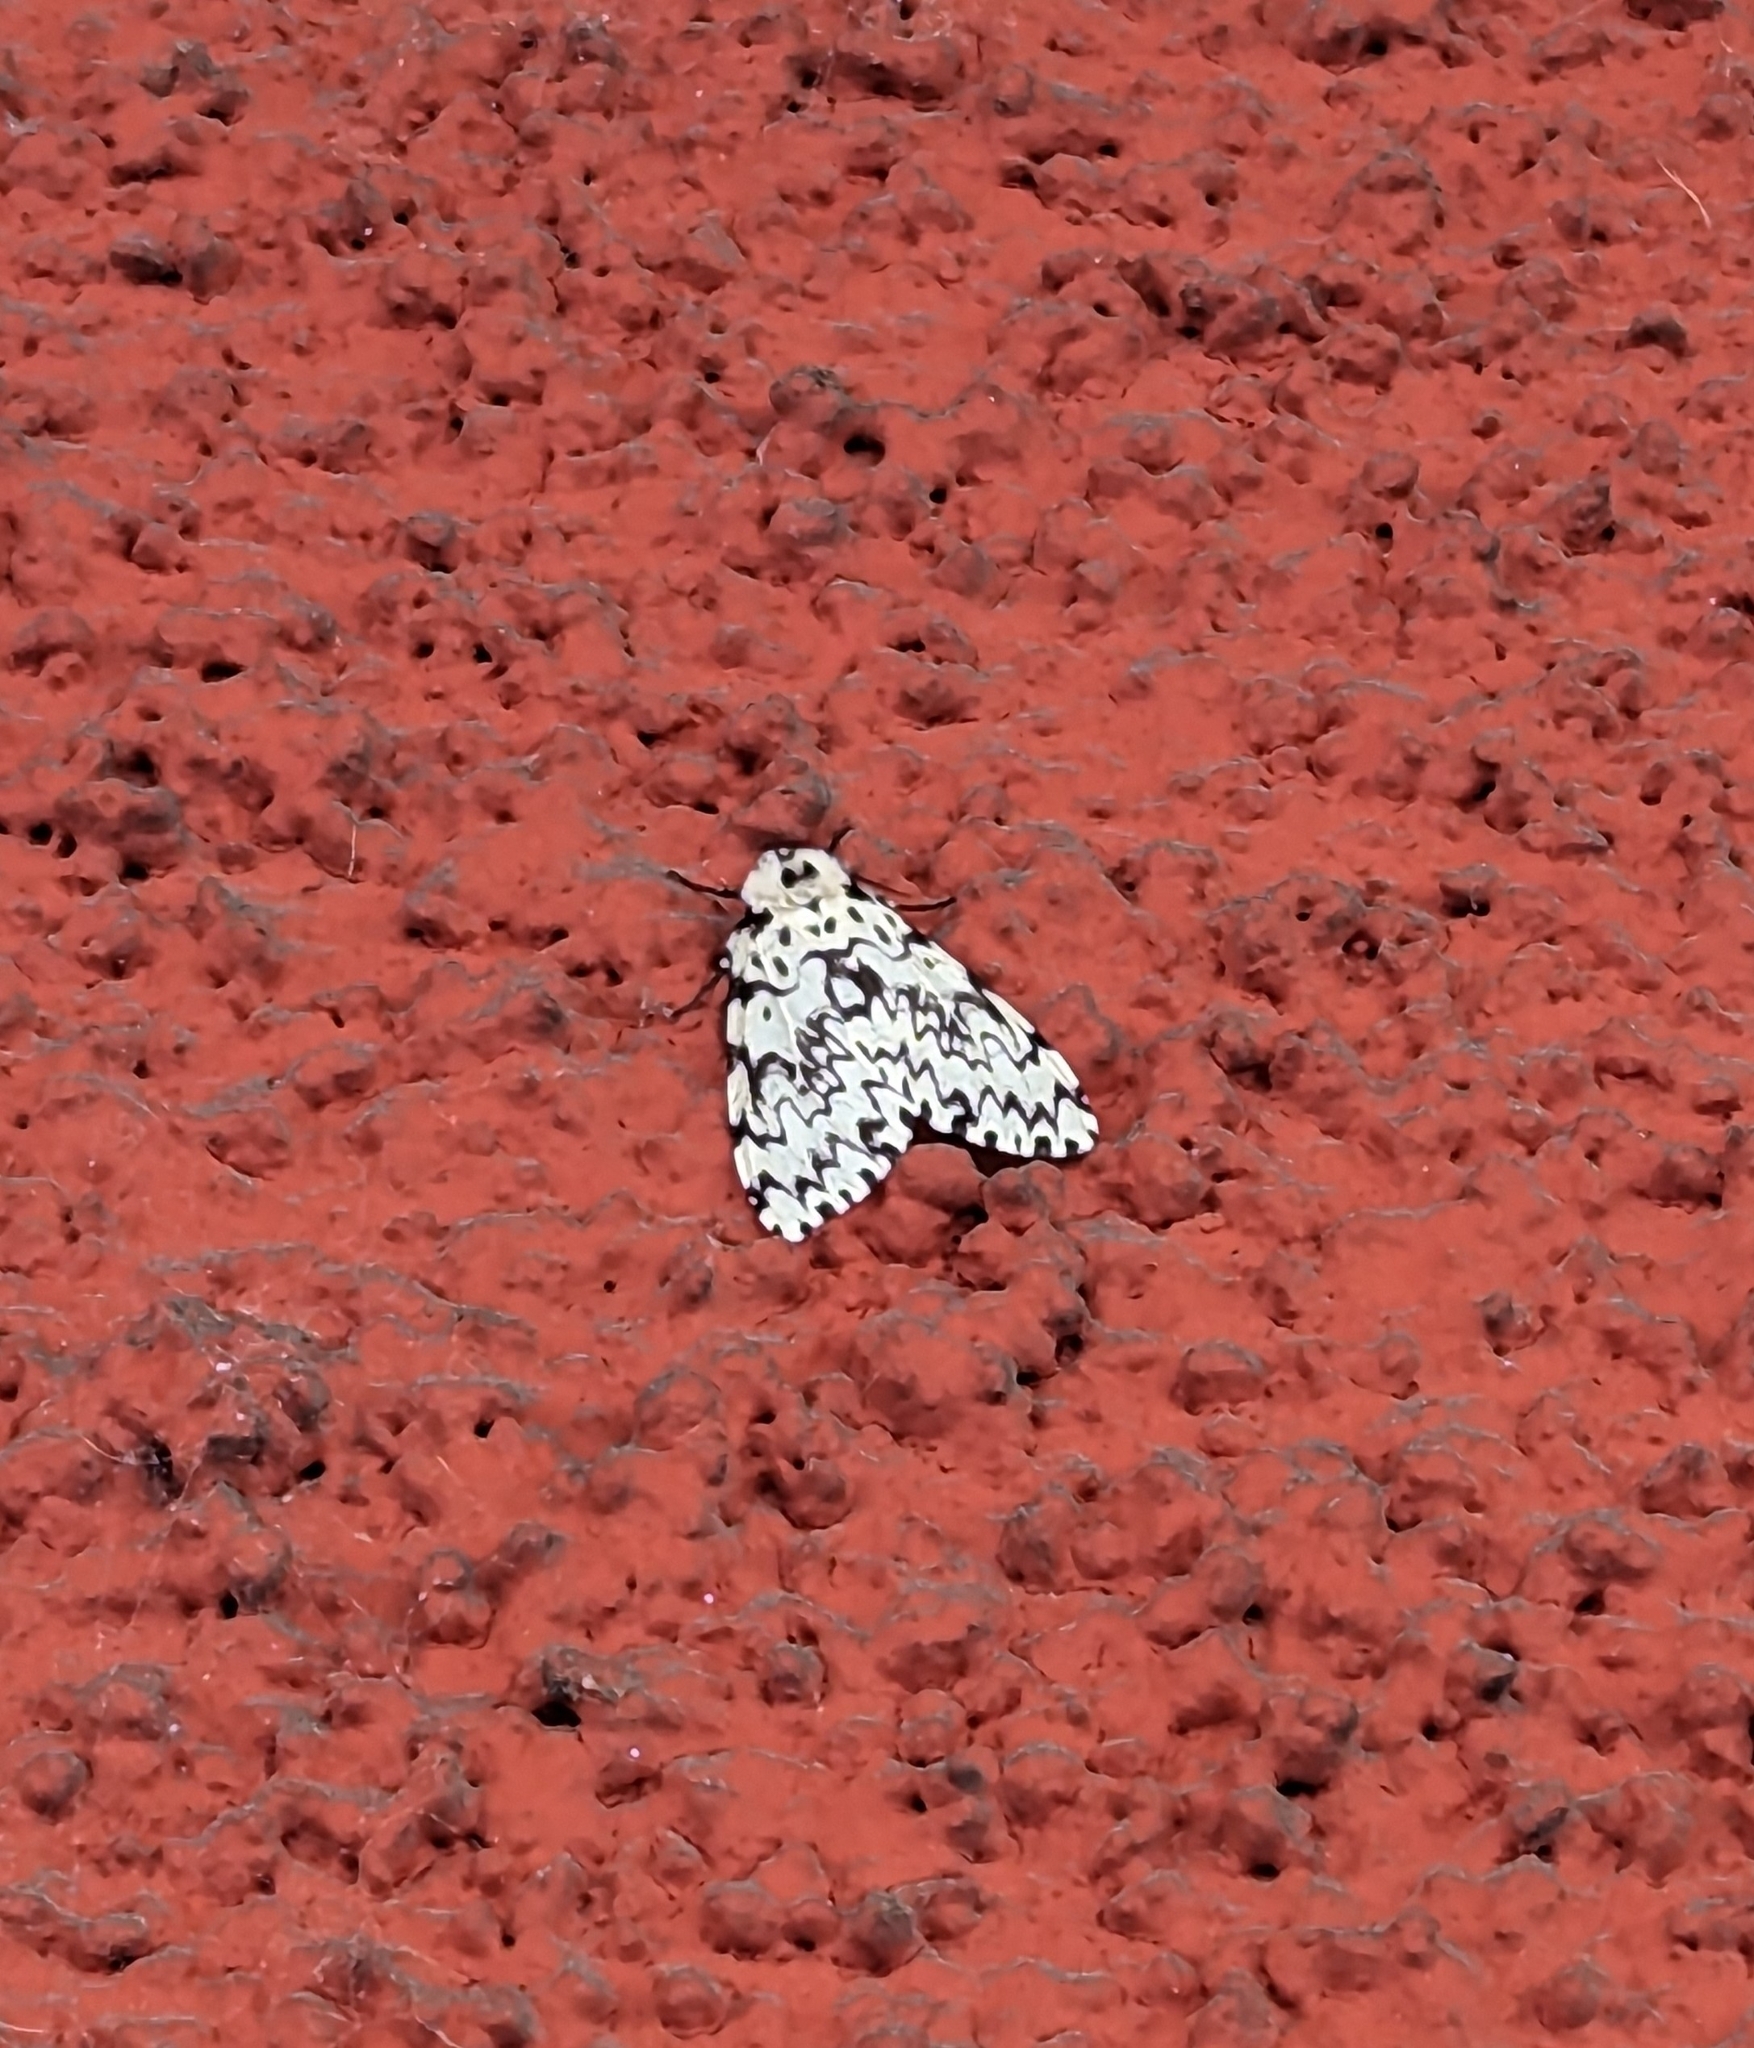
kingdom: Animalia
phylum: Arthropoda
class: Insecta
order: Lepidoptera
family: Erebidae
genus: Lymantria
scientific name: Lymantria monacha
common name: Black arches
